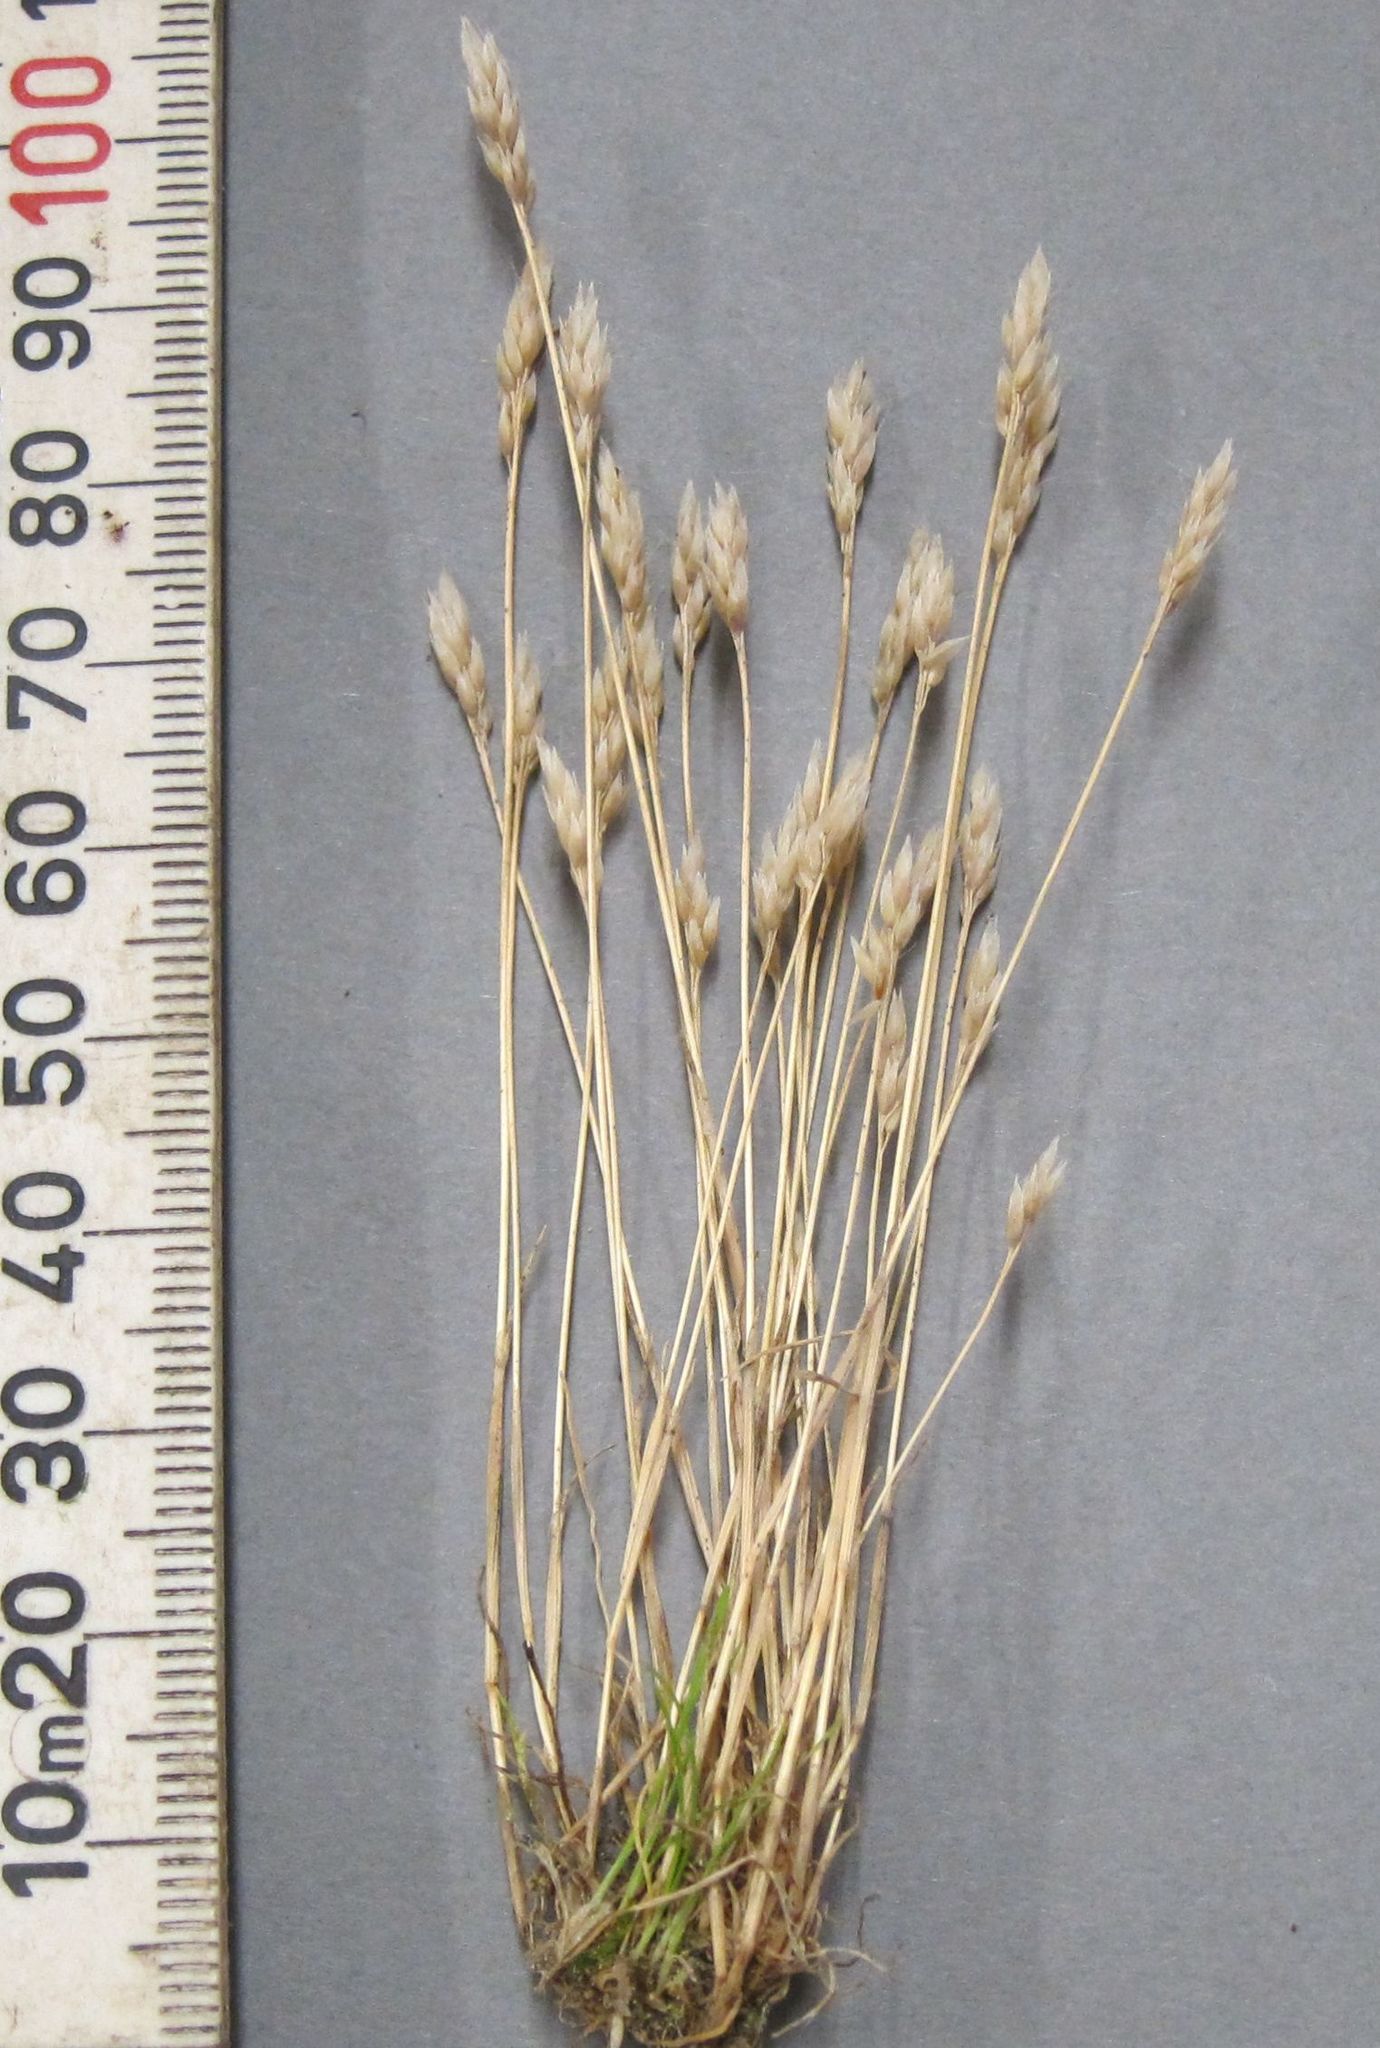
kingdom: Plantae
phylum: Tracheophyta
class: Liliopsida
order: Poales
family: Poaceae
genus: Aira
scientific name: Aira praecox
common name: Early hair-grass
